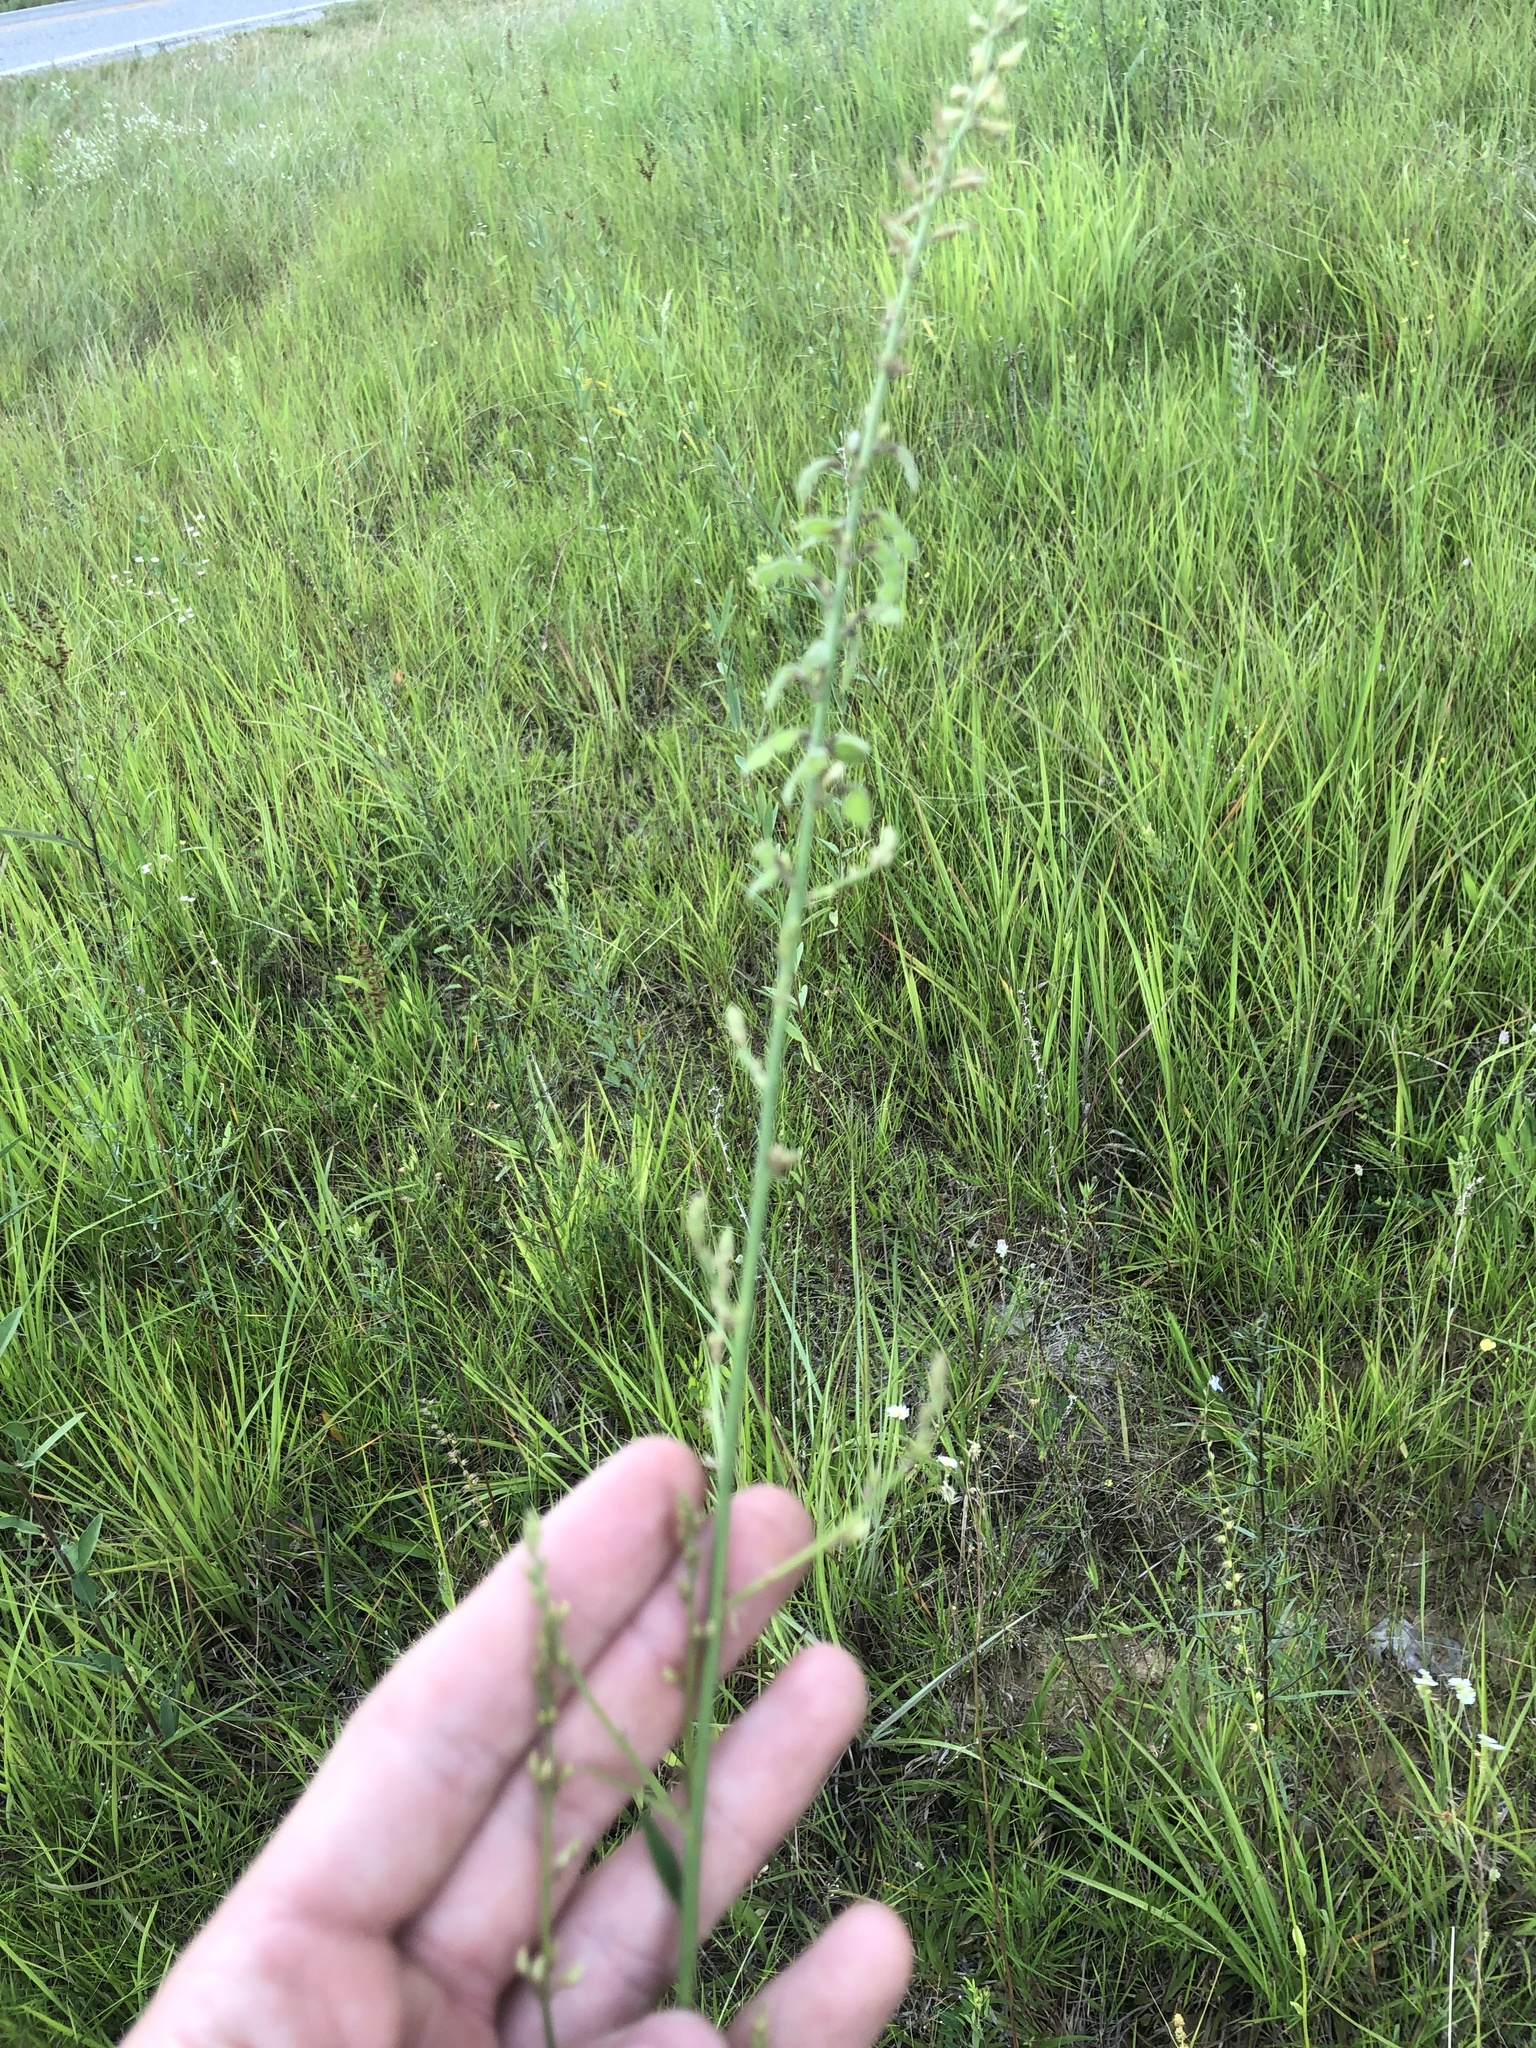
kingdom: Plantae
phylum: Tracheophyta
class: Magnoliopsida
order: Fabales
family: Fabaceae
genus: Desmodium
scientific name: Desmodium sessilifolium
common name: Sessile tick-clover
